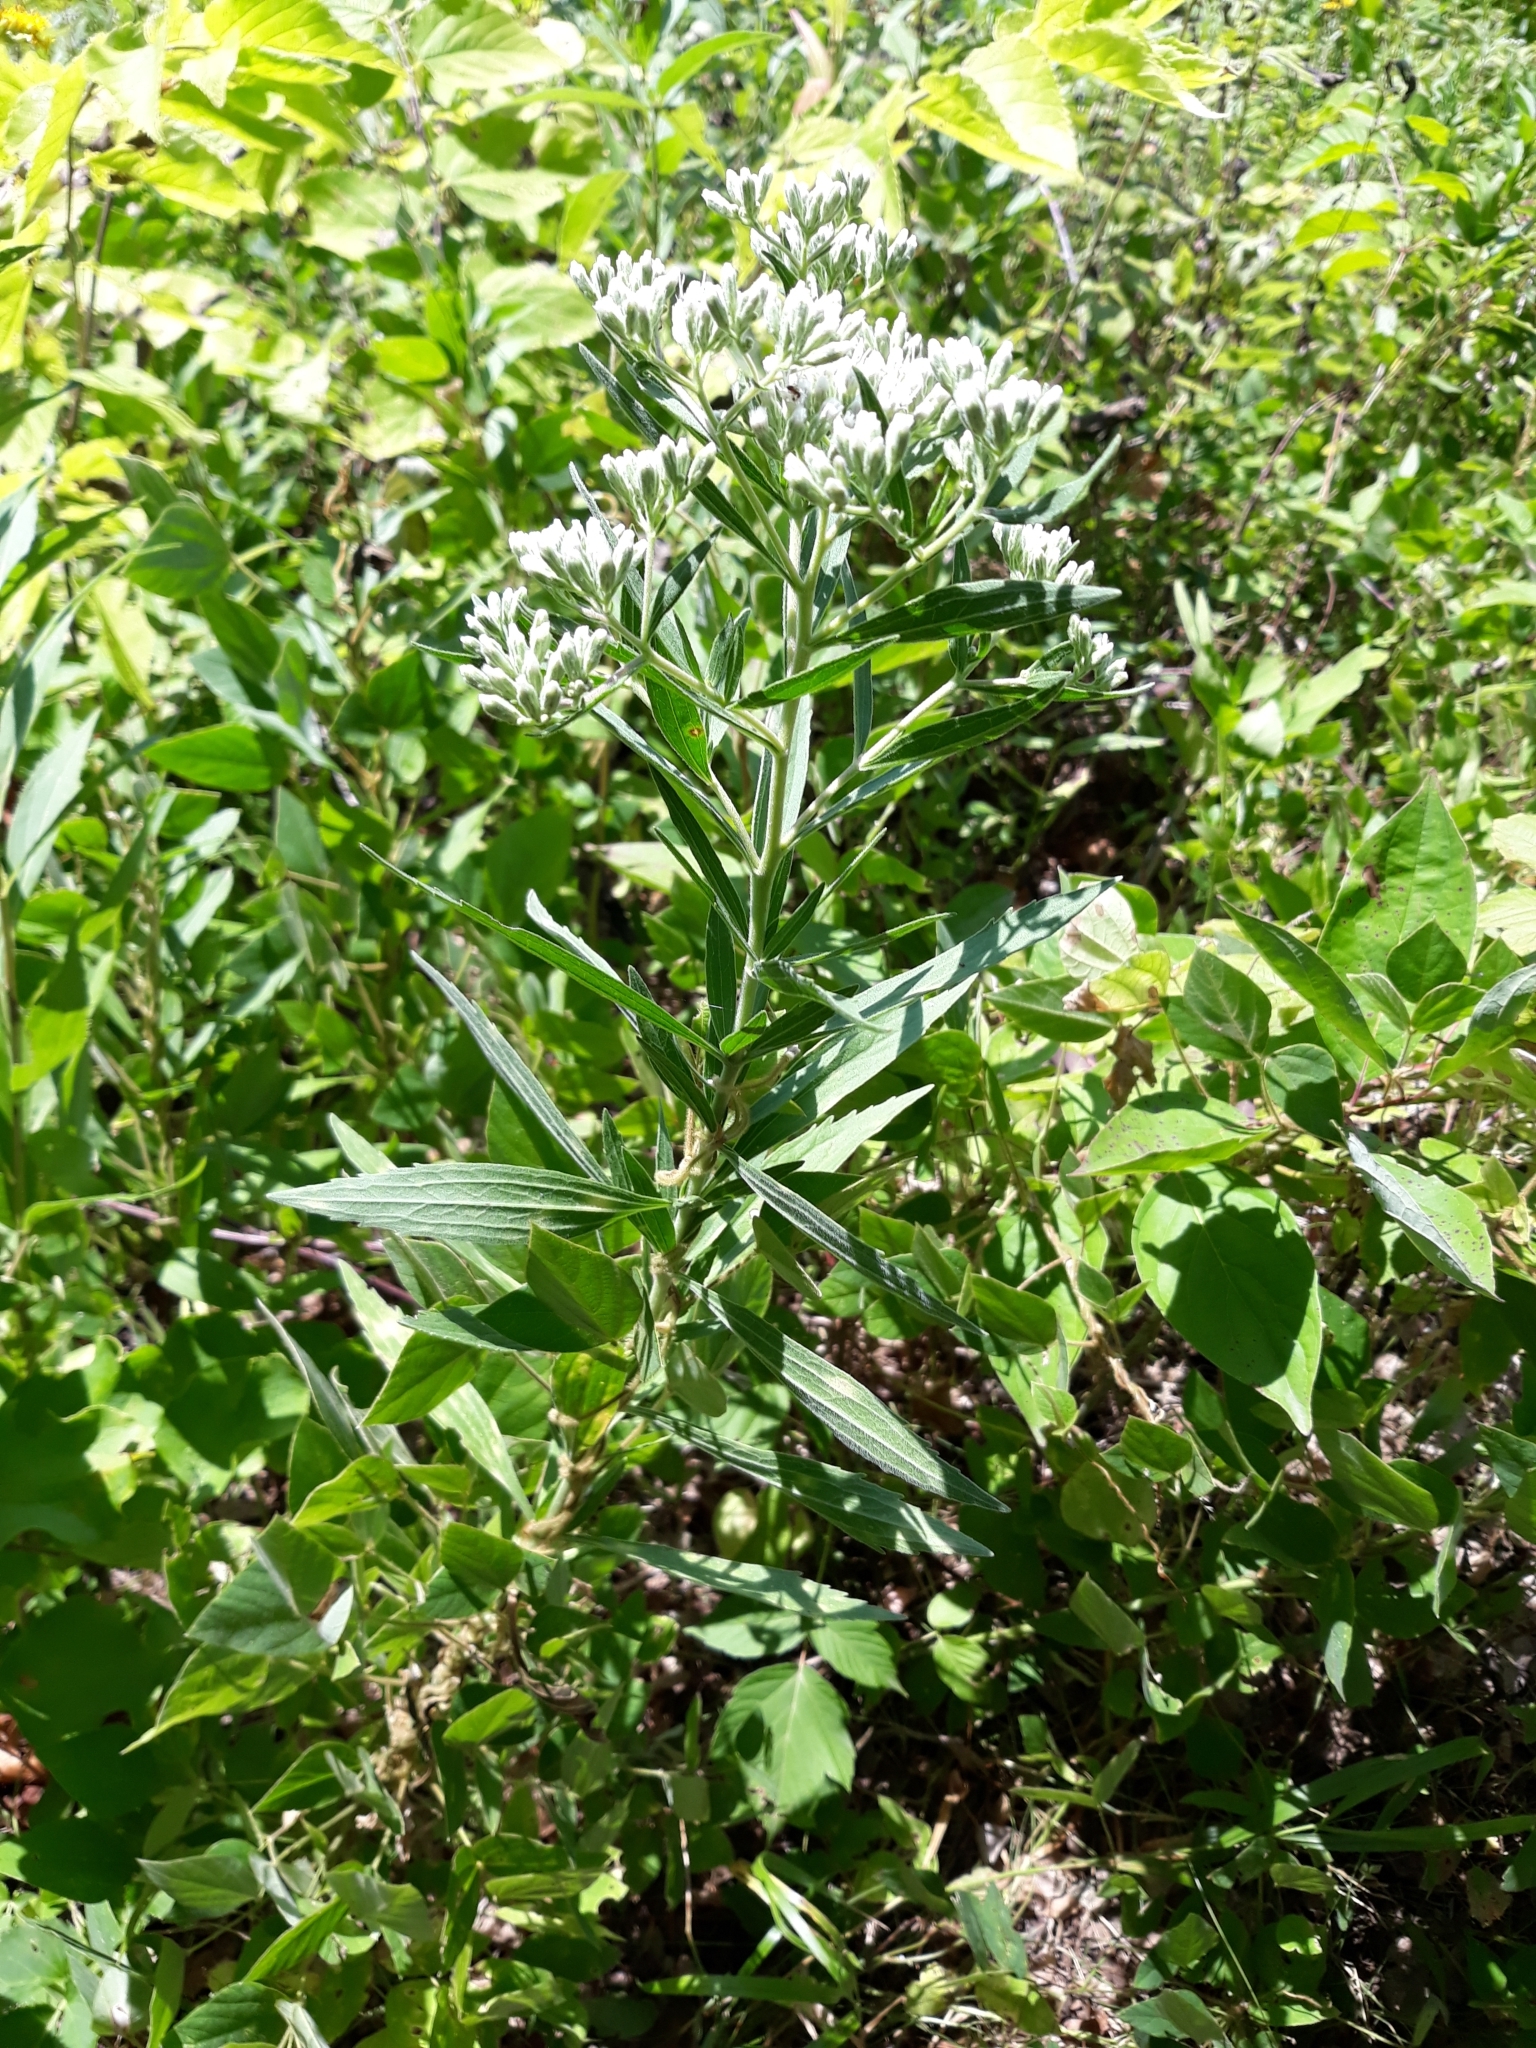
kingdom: Plantae
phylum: Tracheophyta
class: Magnoliopsida
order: Asterales
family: Asteraceae
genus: Eupatorium
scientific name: Eupatorium altissimum
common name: Tall thoroughwort
